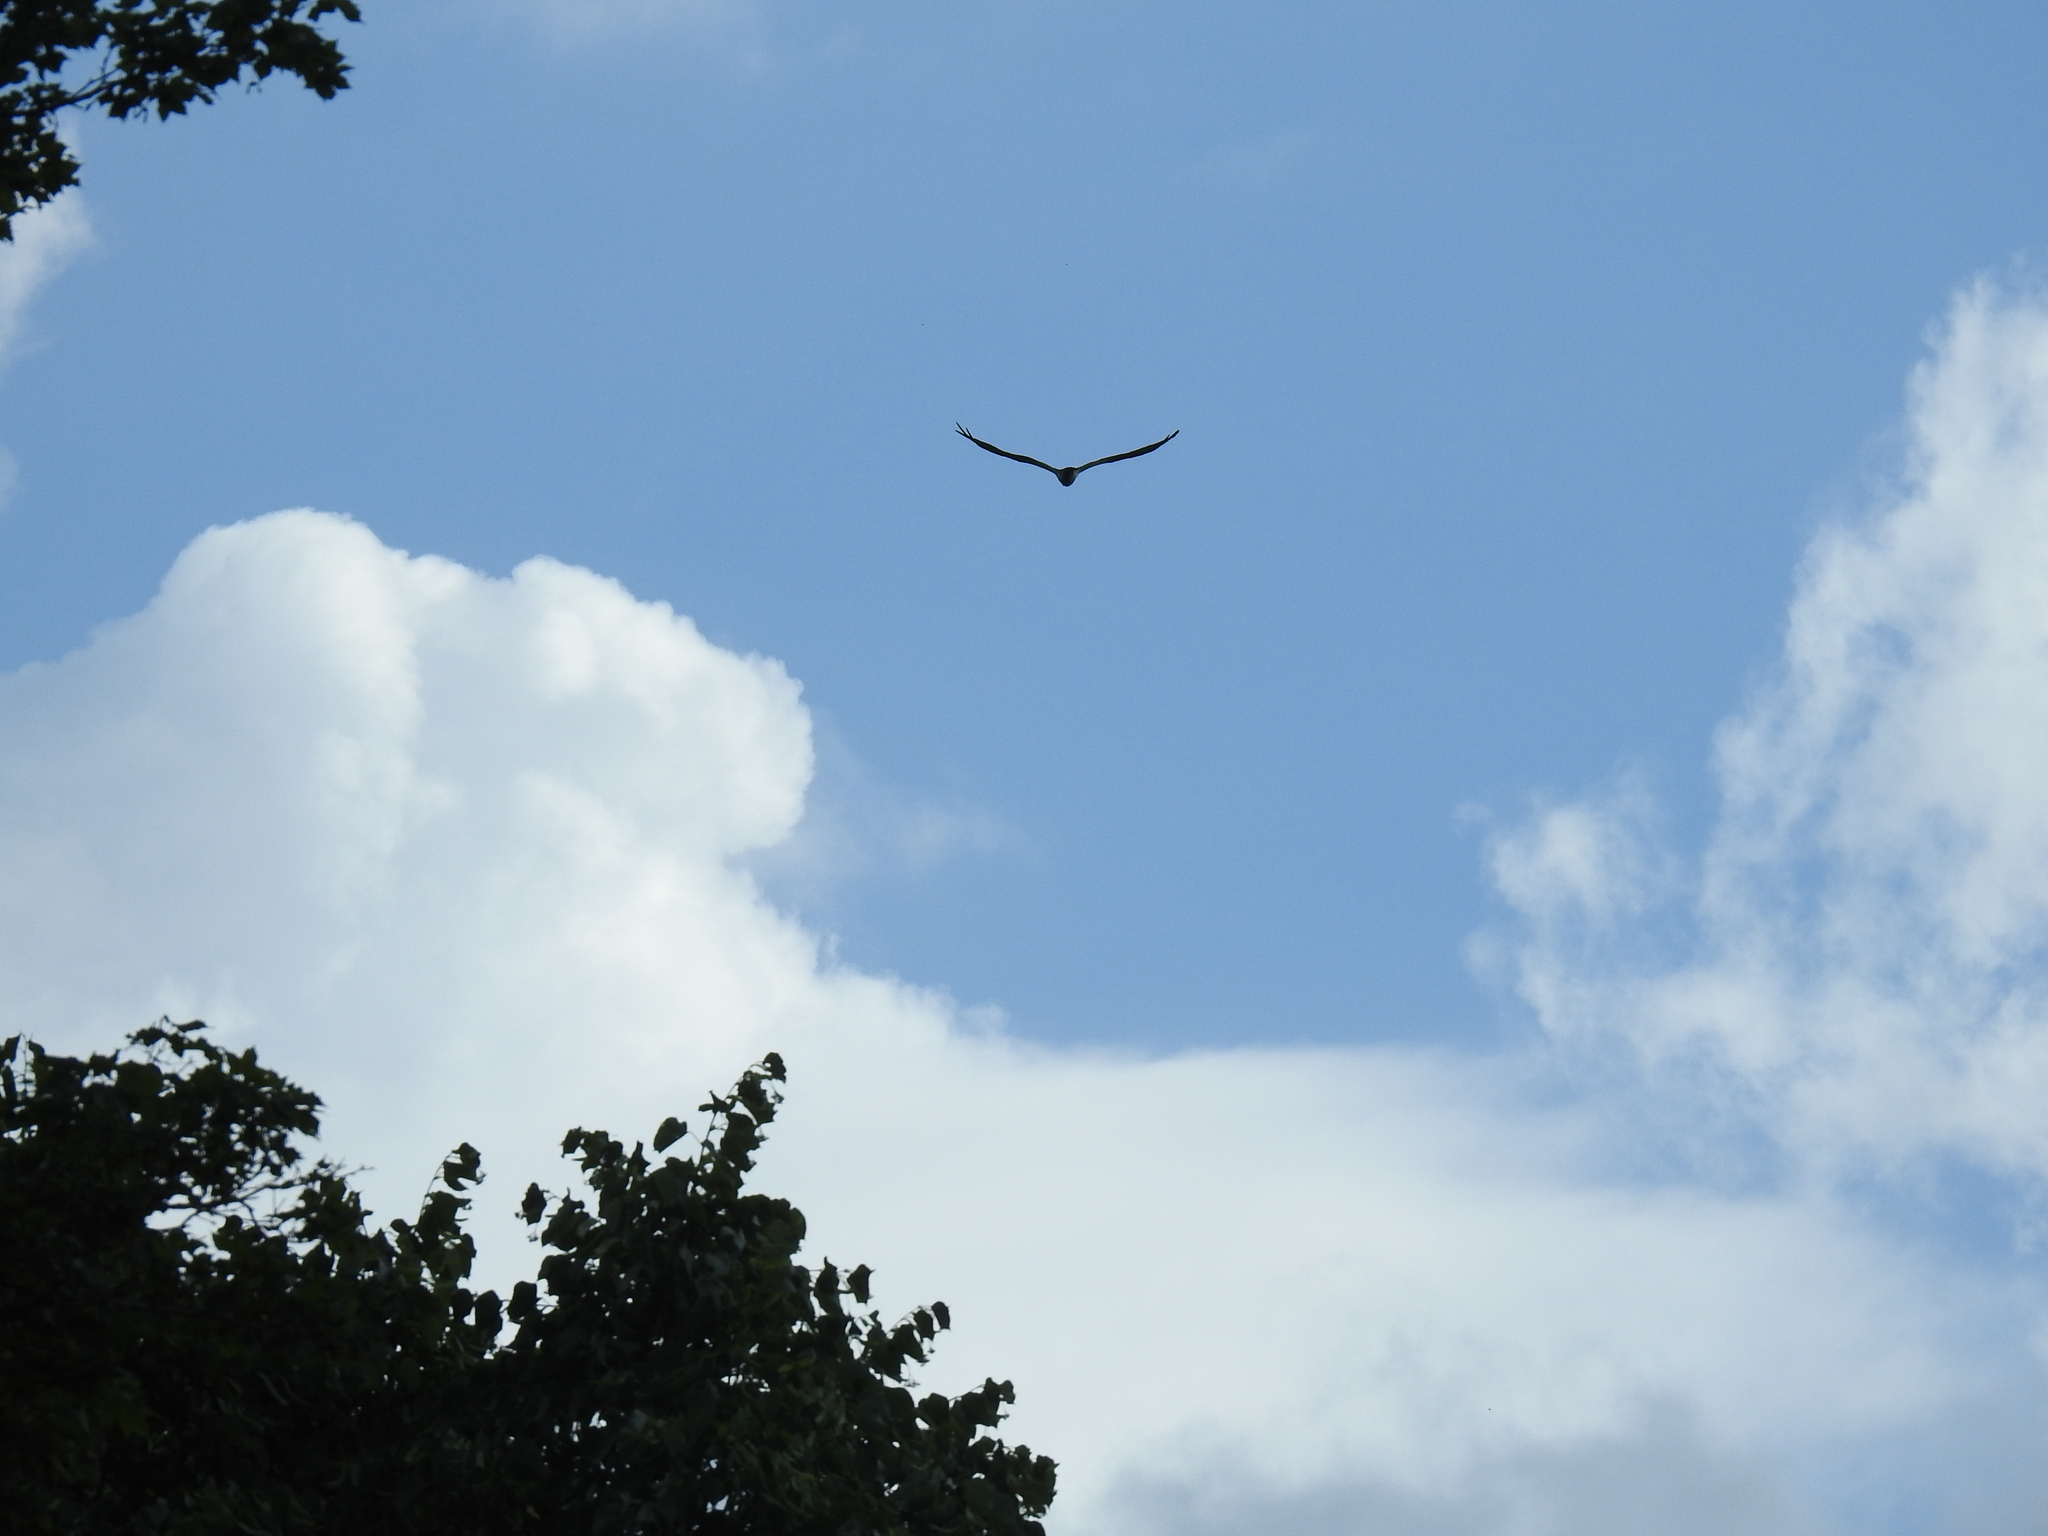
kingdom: Animalia
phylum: Chordata
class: Aves
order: Accipitriformes
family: Pandionidae
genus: Pandion
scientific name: Pandion haliaetus
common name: Osprey
